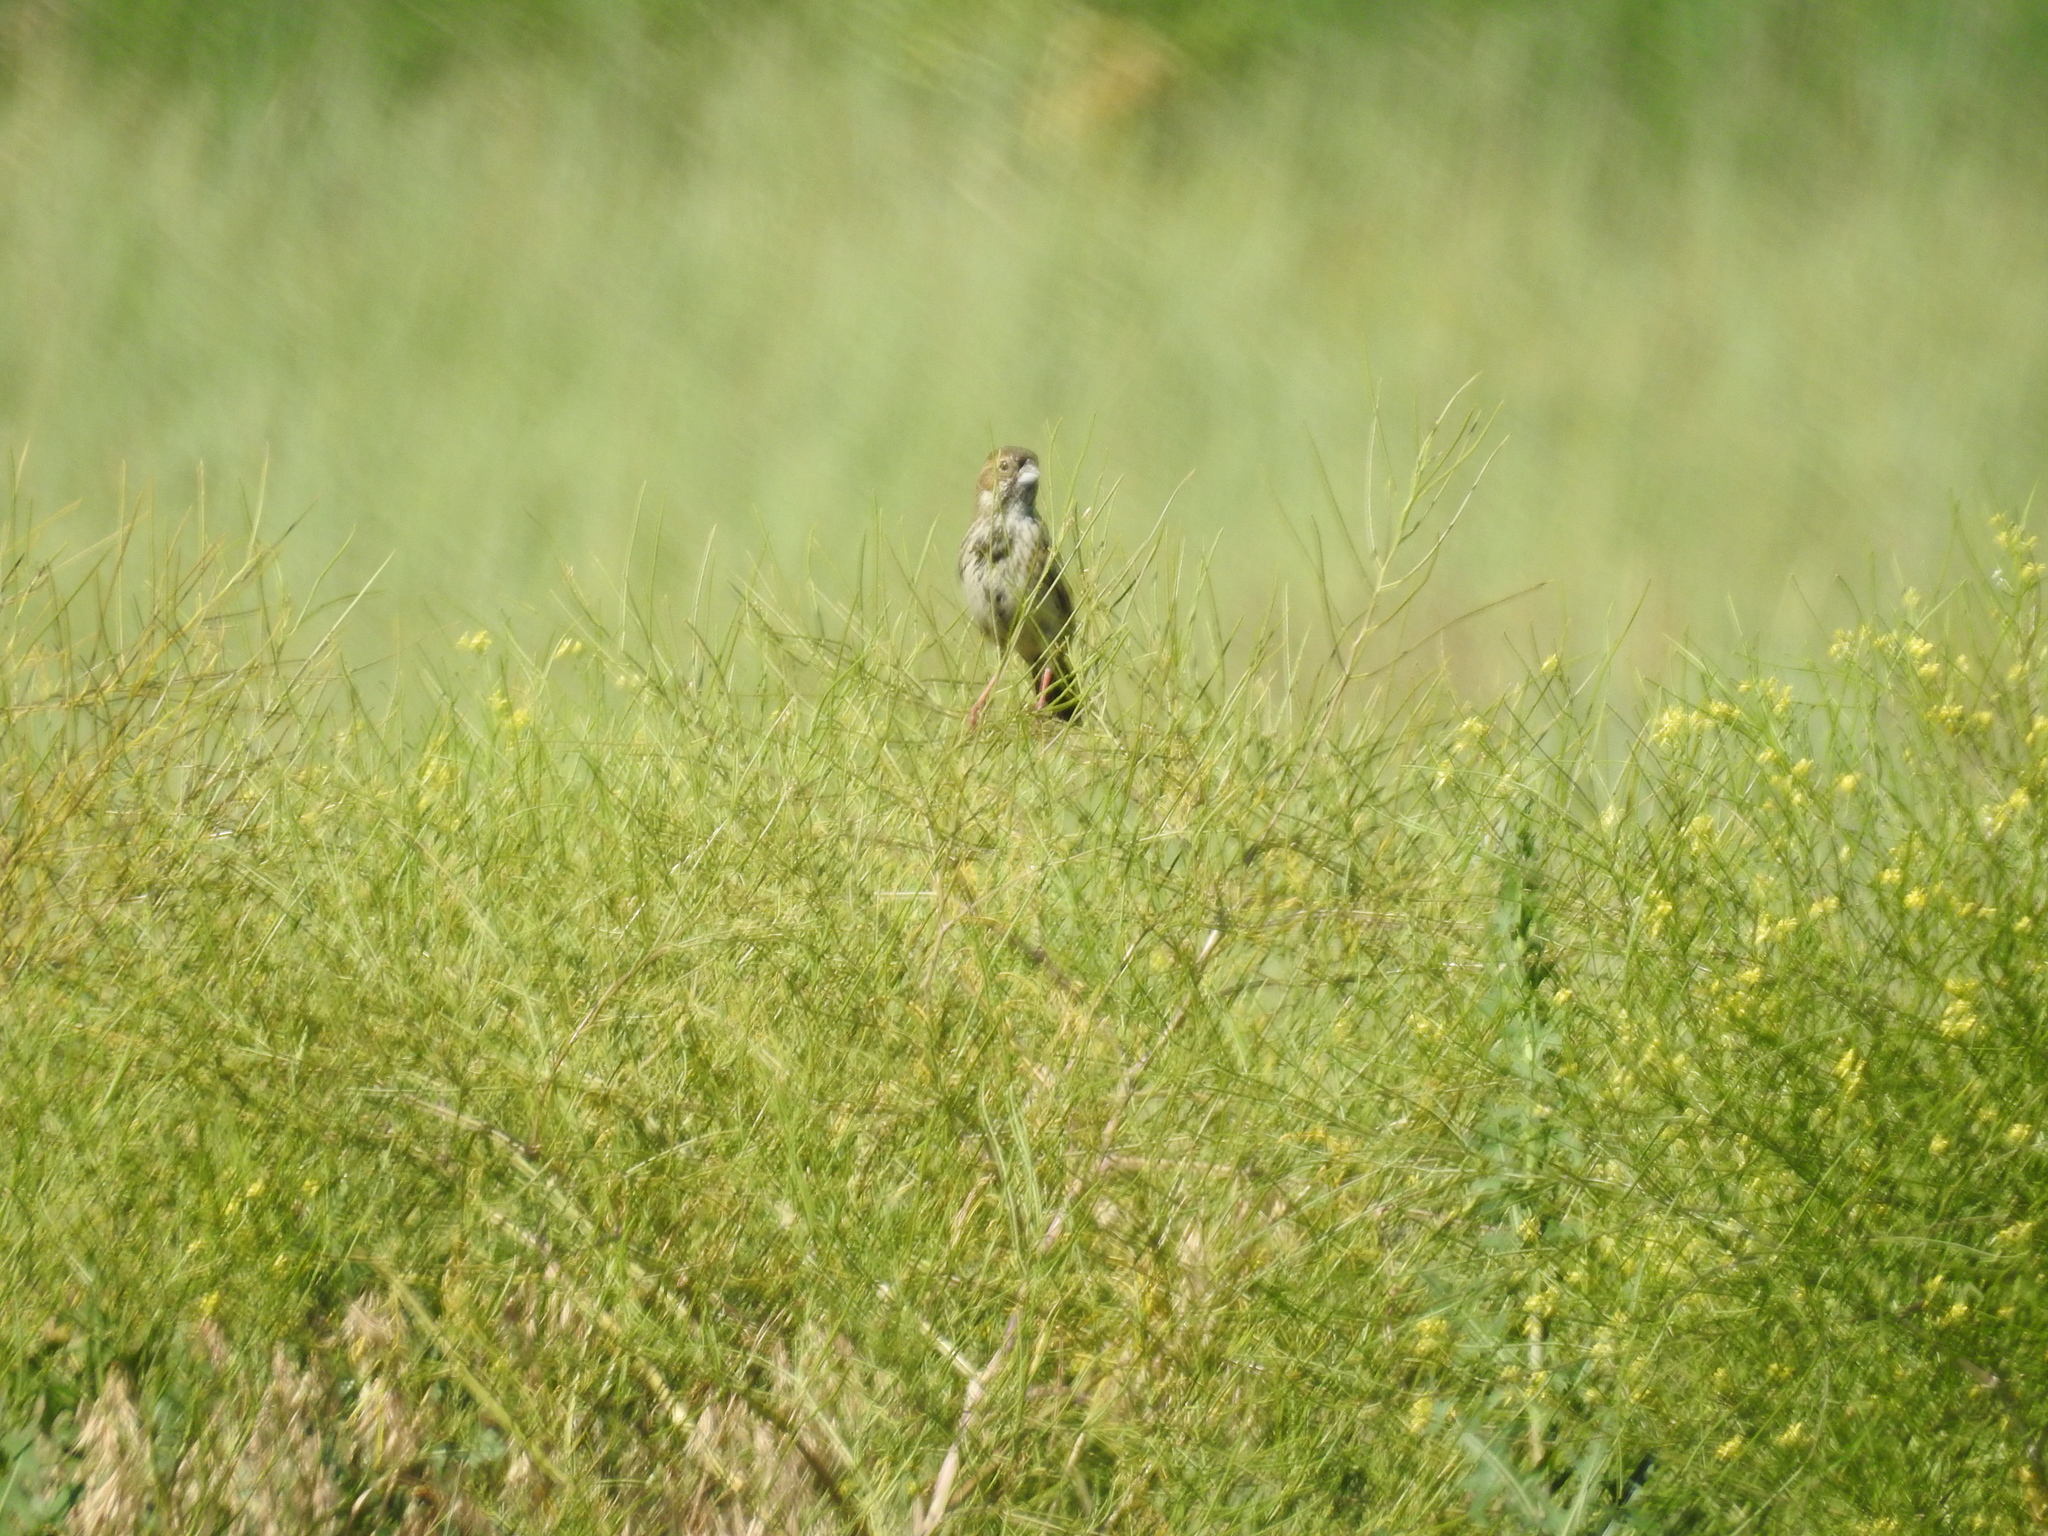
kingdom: Animalia
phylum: Chordata
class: Aves
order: Passeriformes
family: Passerellidae
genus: Calamospiza
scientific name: Calamospiza melanocorys
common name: Lark bunting
